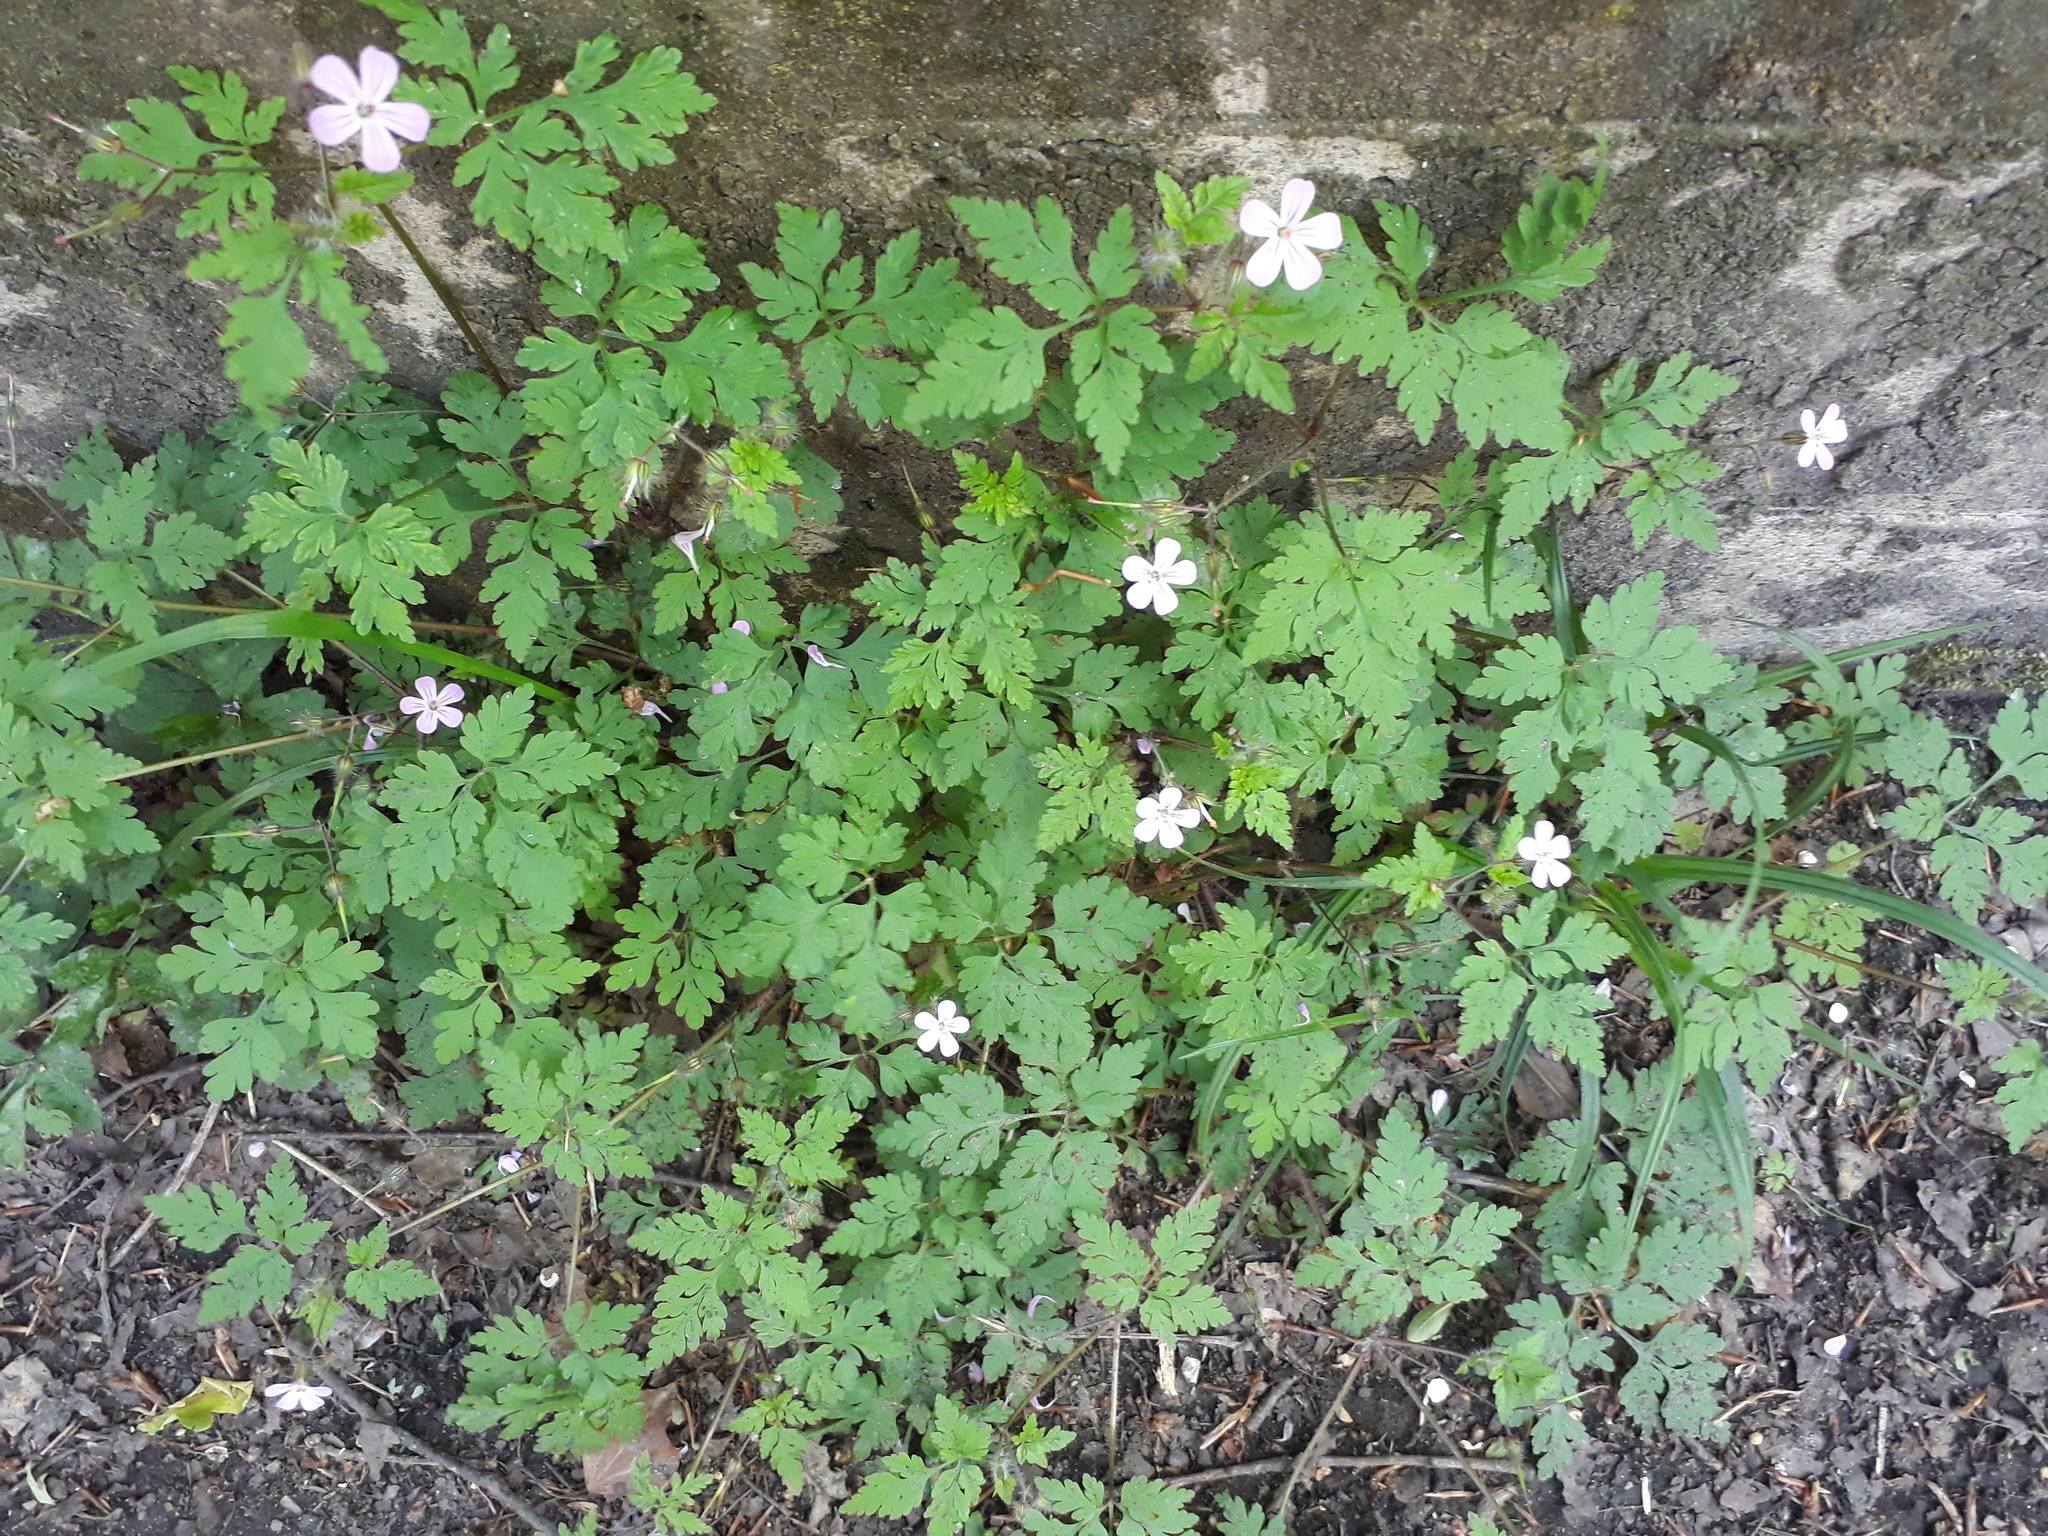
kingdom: Plantae
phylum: Tracheophyta
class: Magnoliopsida
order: Geraniales
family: Geraniaceae
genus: Geranium
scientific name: Geranium robertianum
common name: Herb-robert
